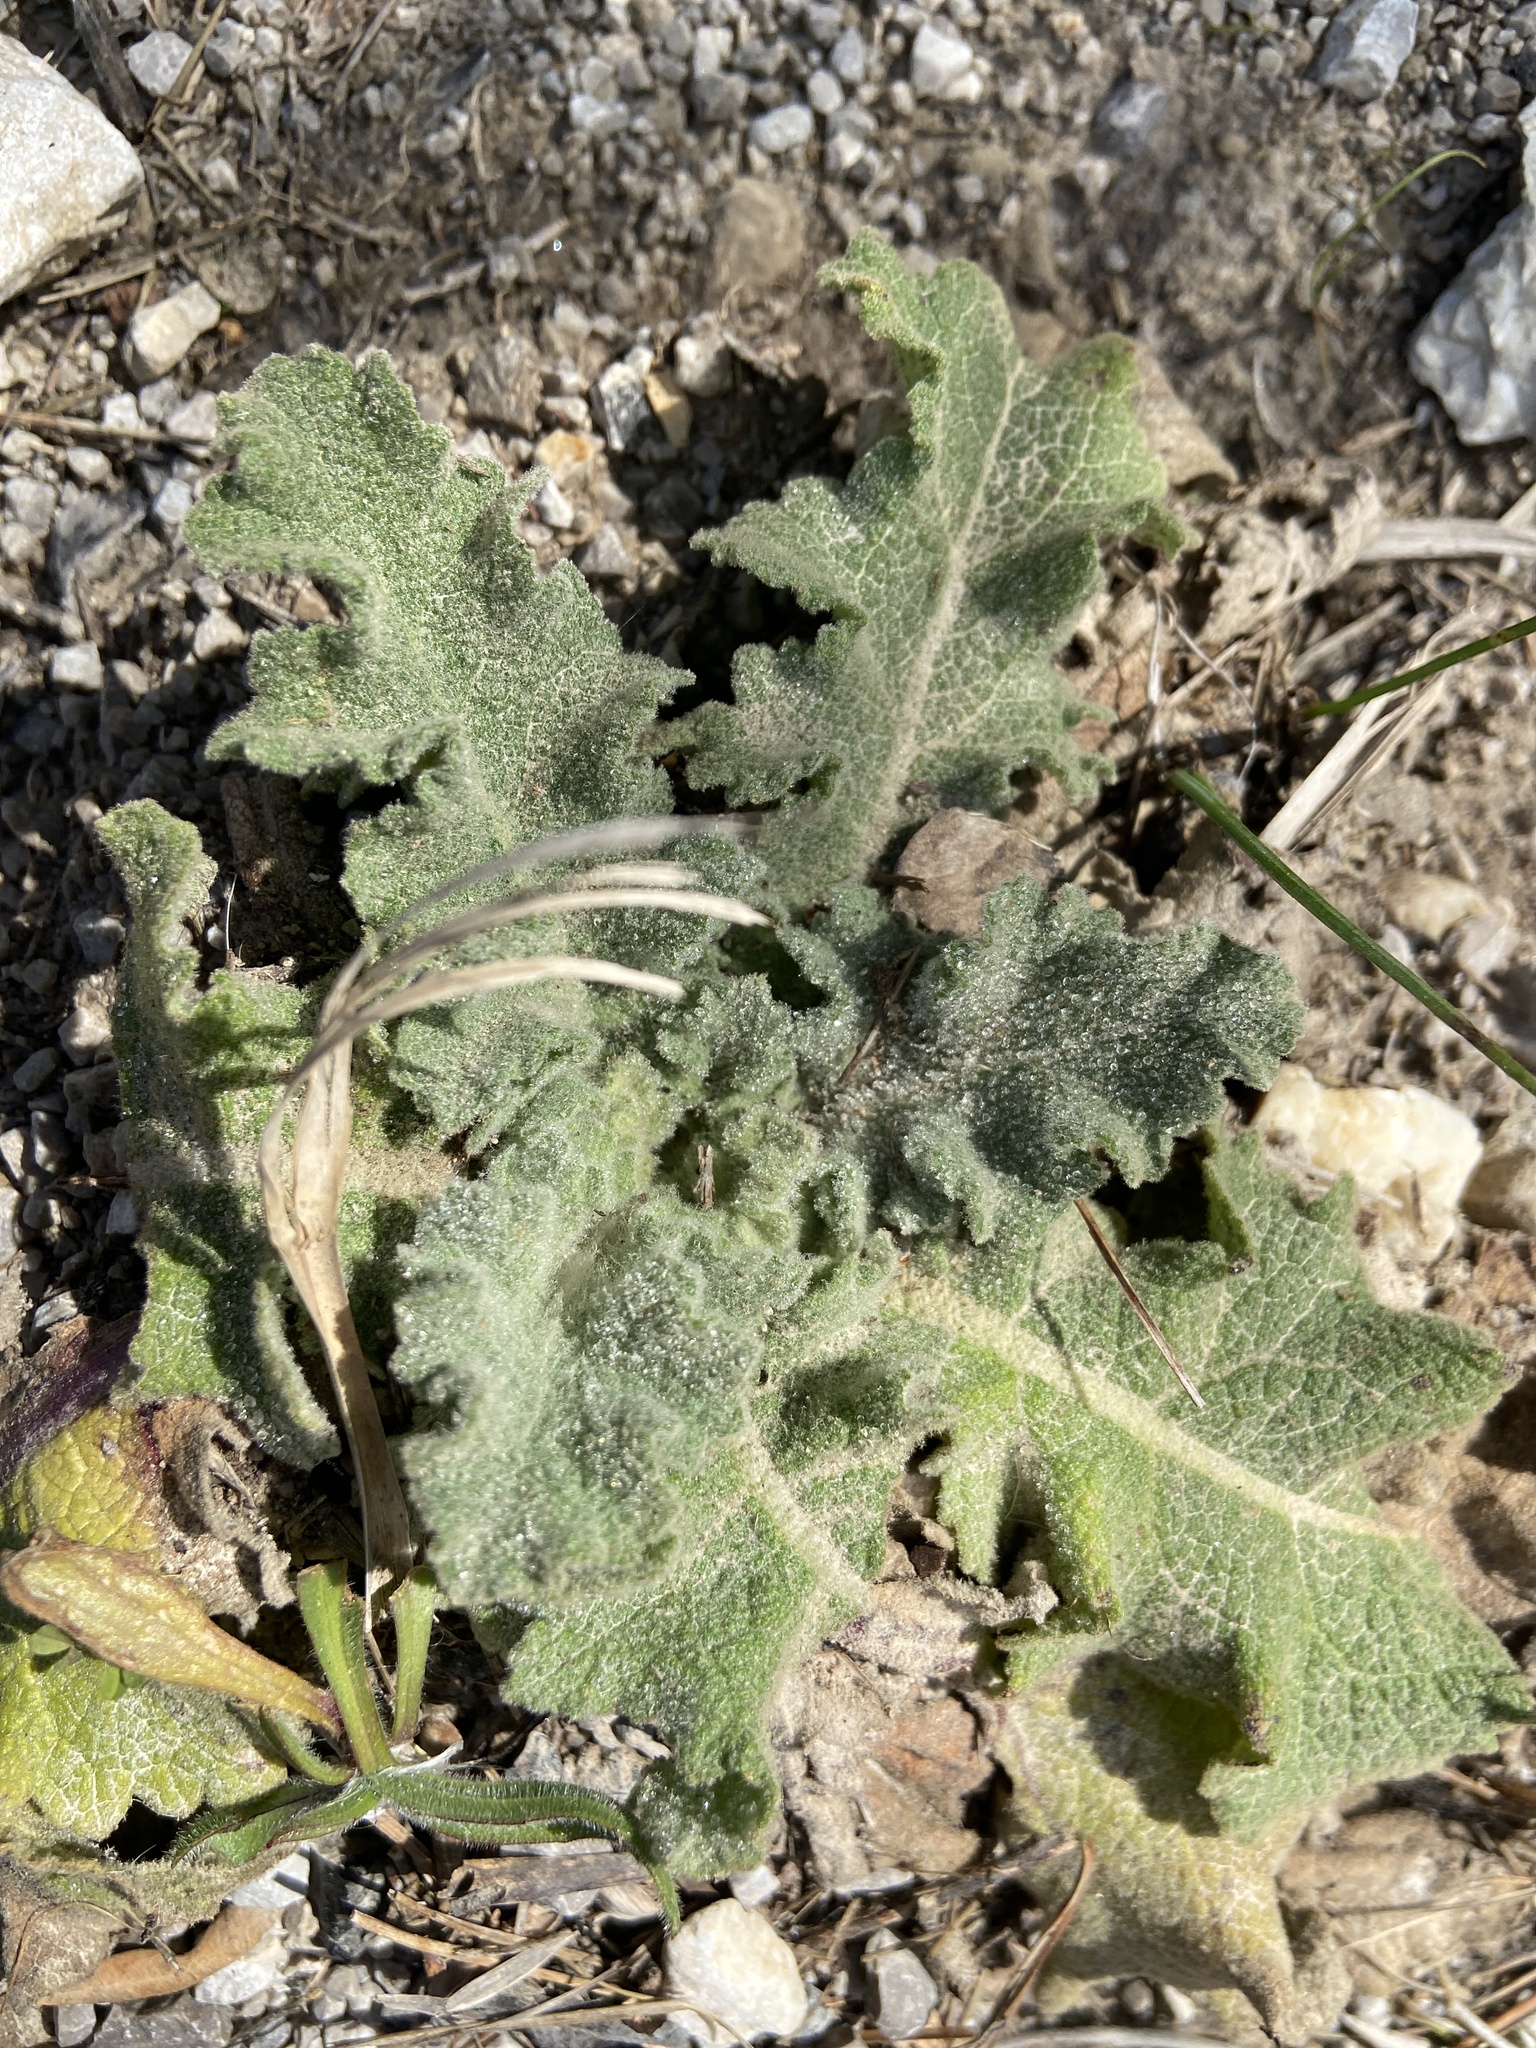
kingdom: Plantae
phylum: Tracheophyta
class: Magnoliopsida
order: Lamiales
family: Scrophulariaceae
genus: Verbascum
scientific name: Verbascum sinuatum
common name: Wavyleaf mullein
